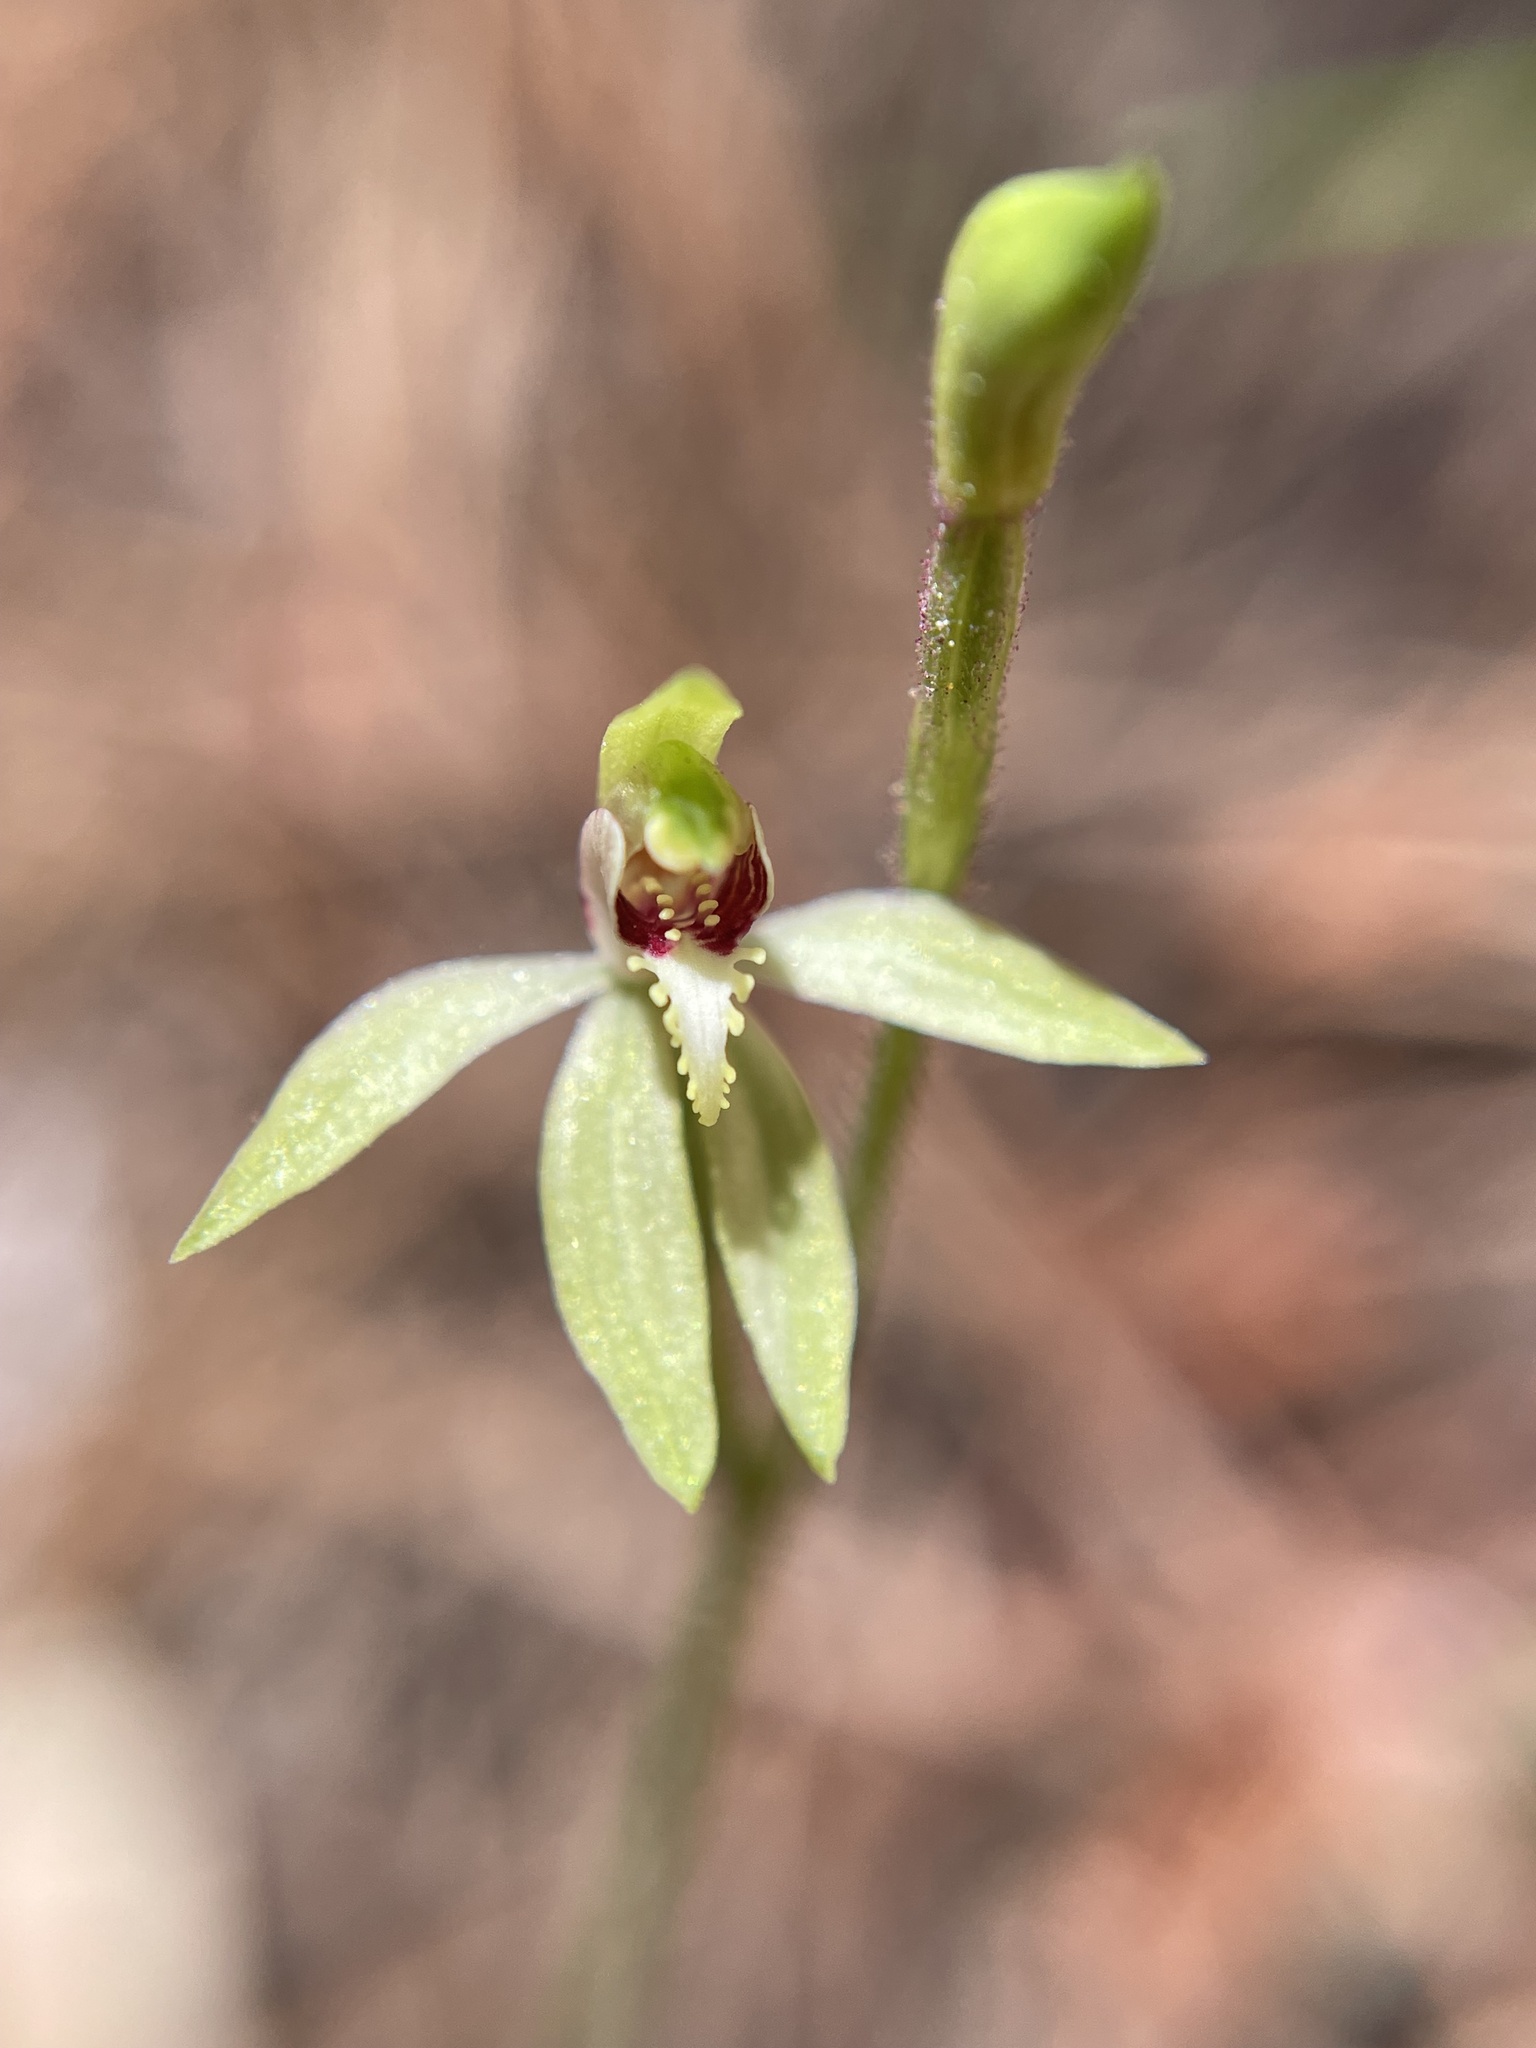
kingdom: Plantae
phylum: Tracheophyta
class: Liliopsida
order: Asparagales
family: Orchidaceae
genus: Caladenia
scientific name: Caladenia chlorostyla
